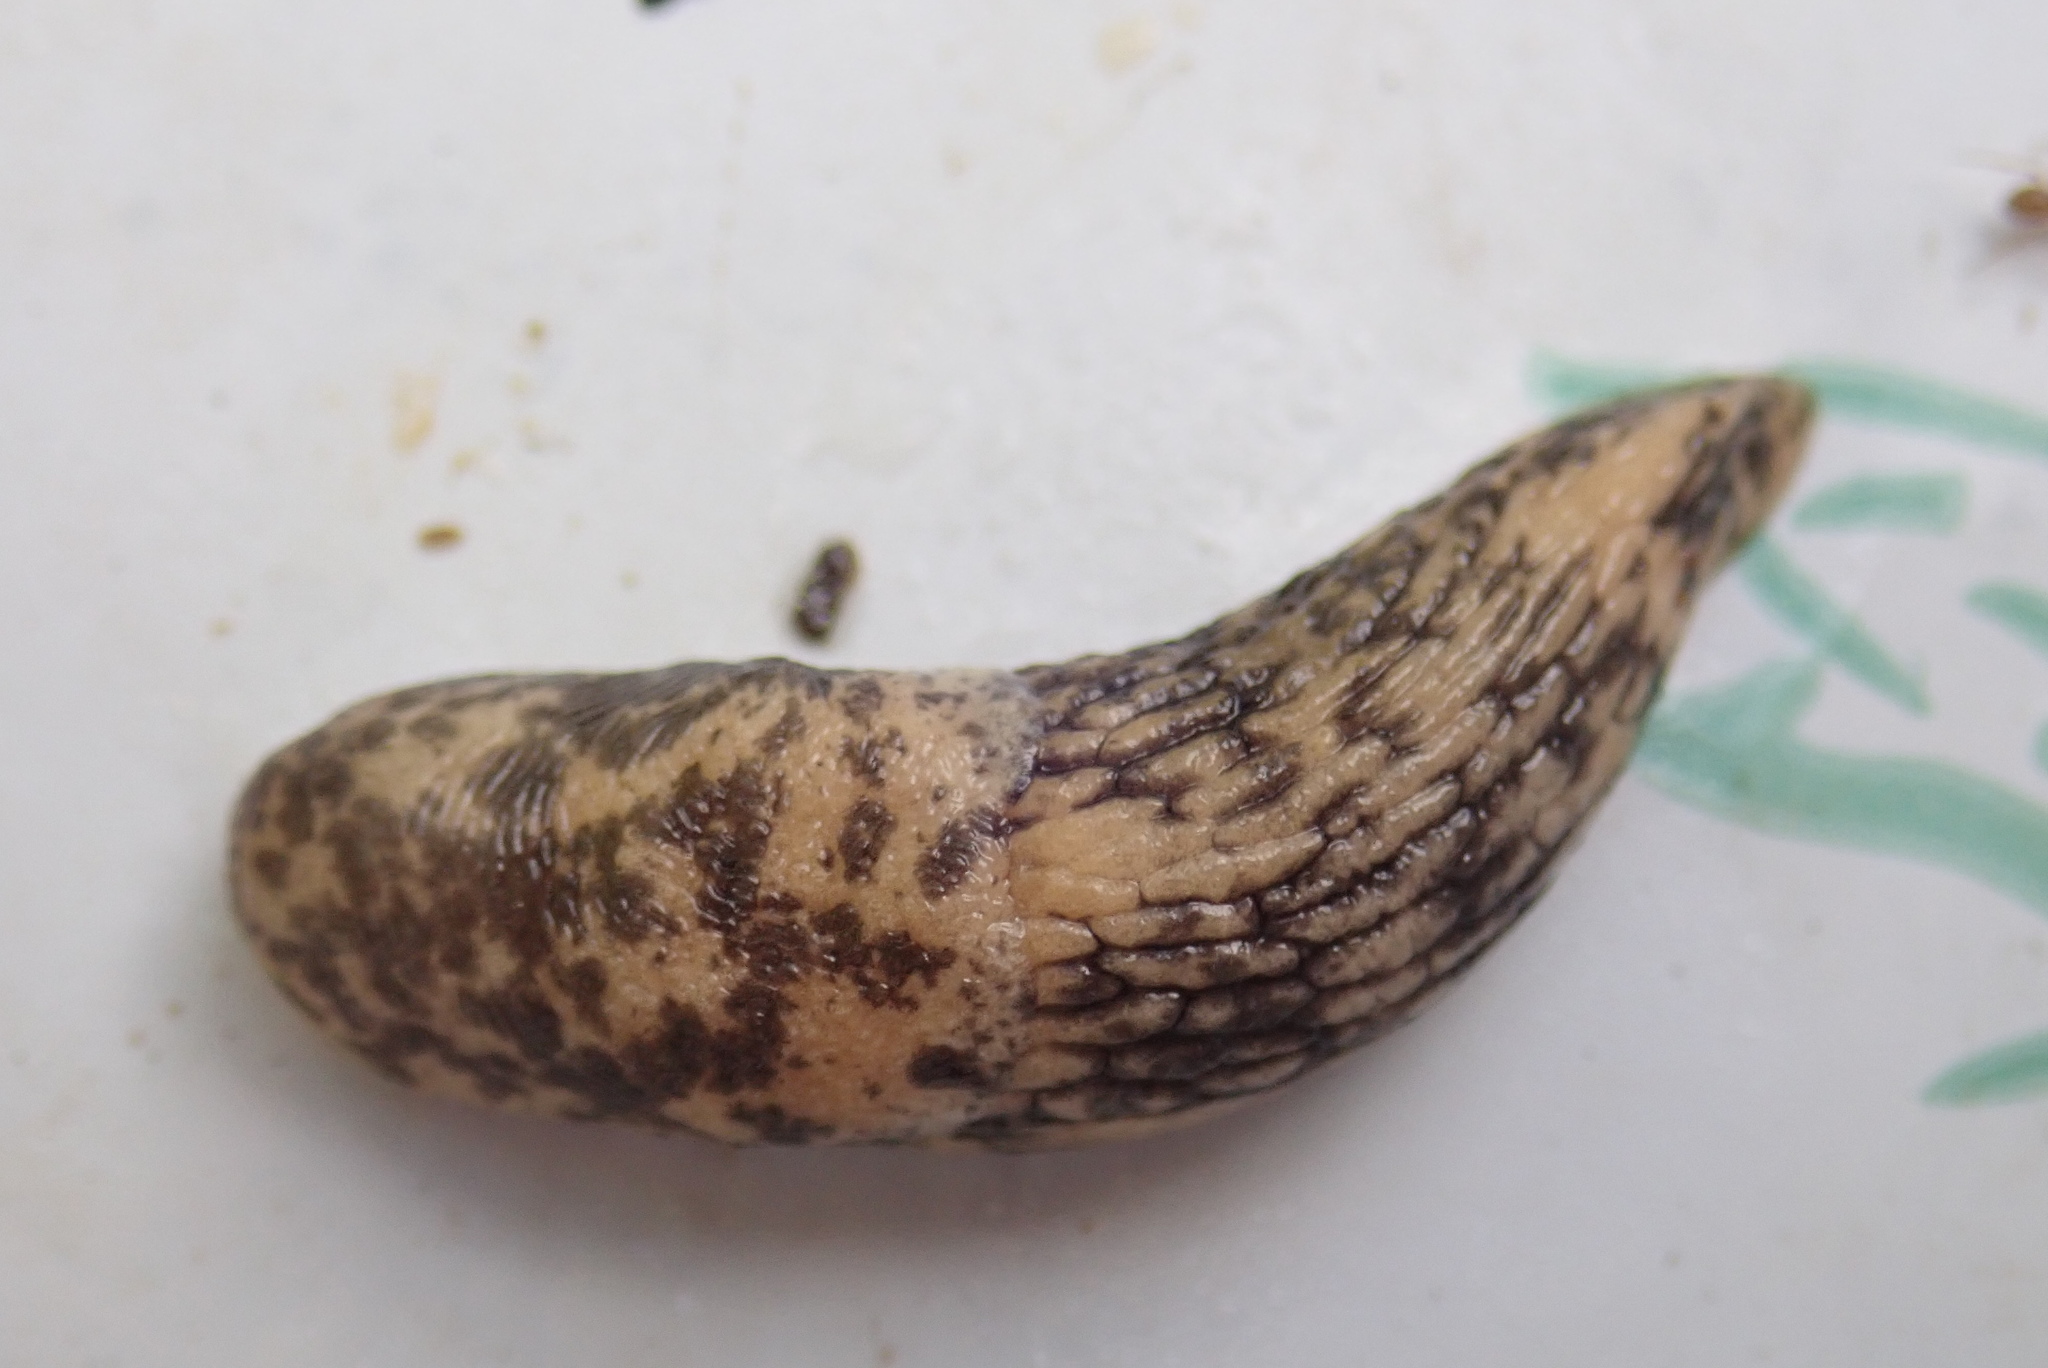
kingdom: Animalia
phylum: Mollusca
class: Gastropoda
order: Stylommatophora
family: Agriolimacidae
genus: Deroceras
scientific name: Deroceras reticulatum
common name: Gray field slug
